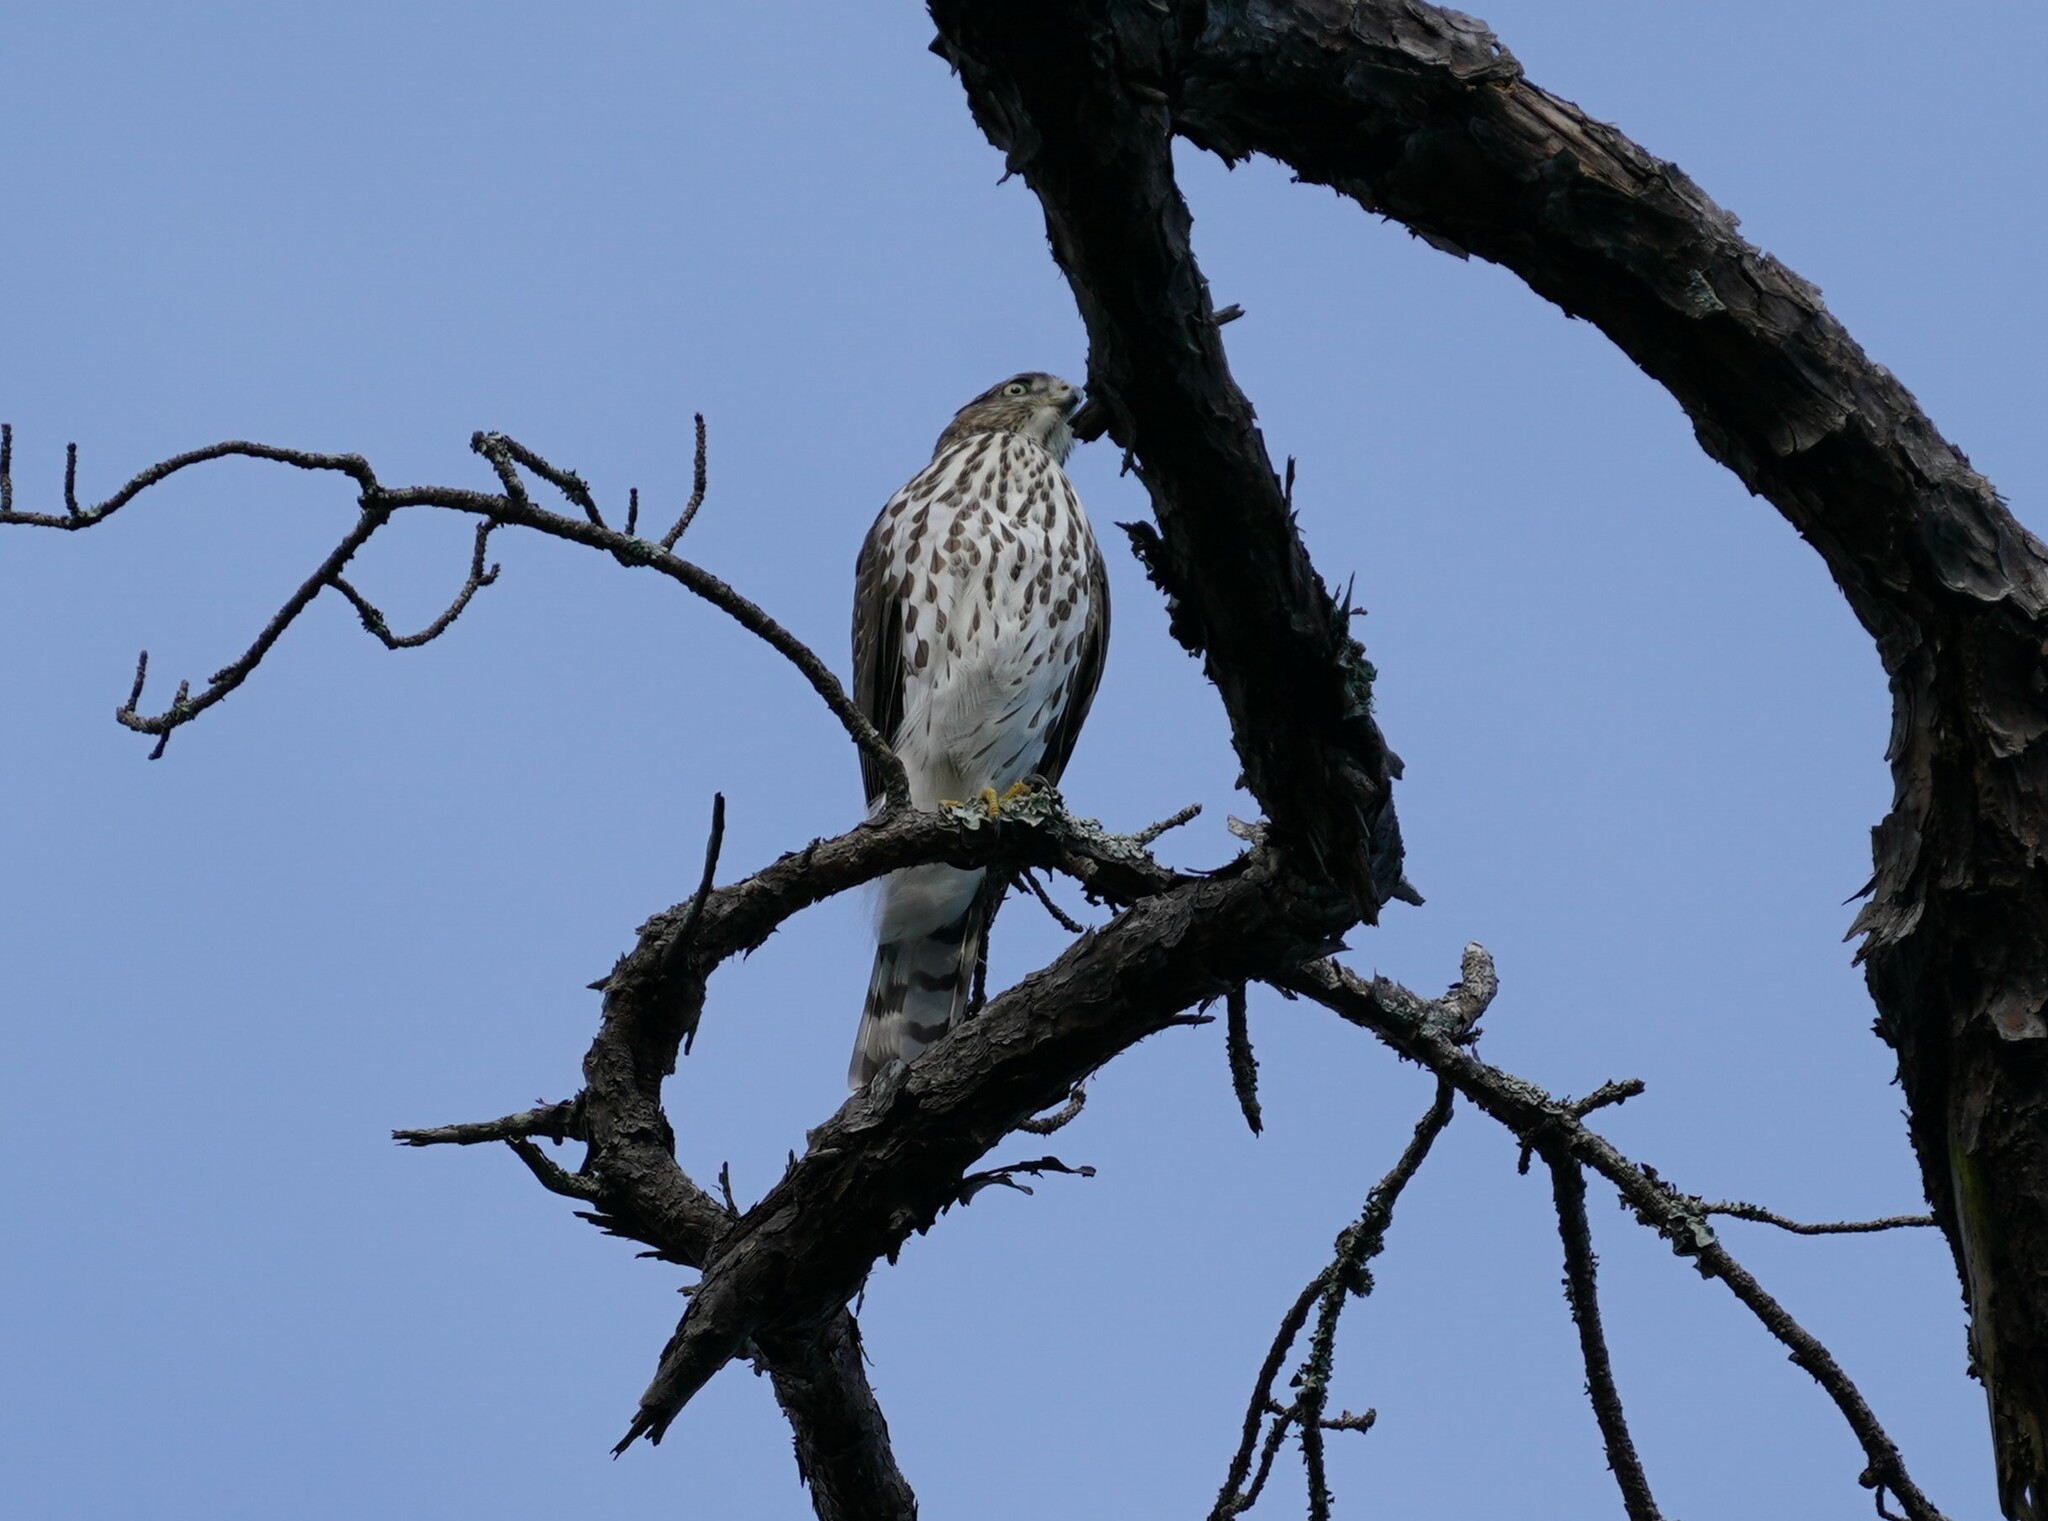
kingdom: Animalia
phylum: Chordata
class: Aves
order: Accipitriformes
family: Accipitridae
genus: Accipiter
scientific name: Accipiter cooperii
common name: Cooper's hawk
